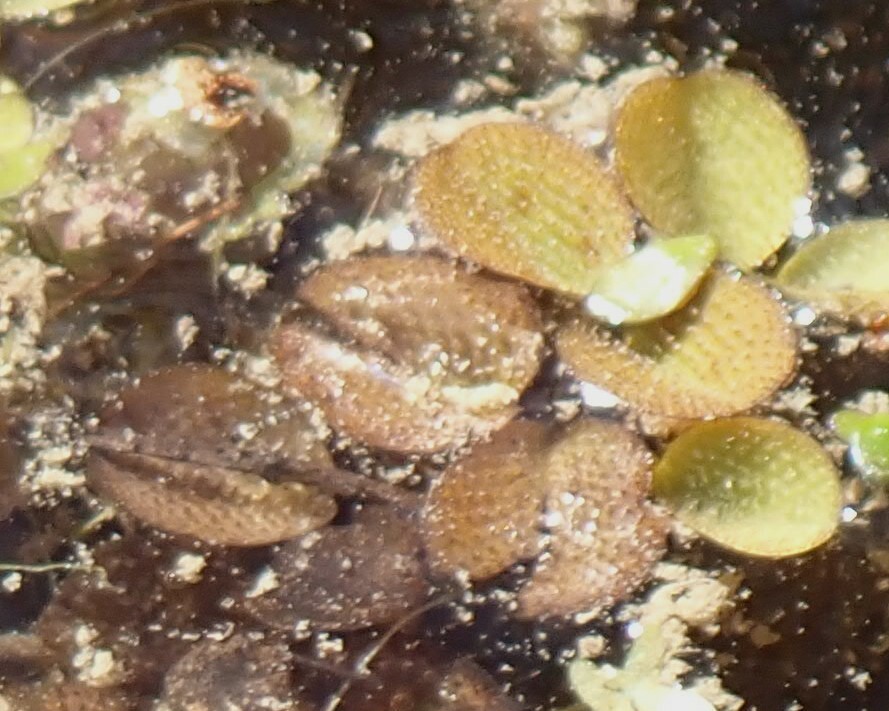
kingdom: Plantae
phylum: Tracheophyta
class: Polypodiopsida
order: Salviniales
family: Salviniaceae
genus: Salvinia
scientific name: Salvinia minima
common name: Water spangles
